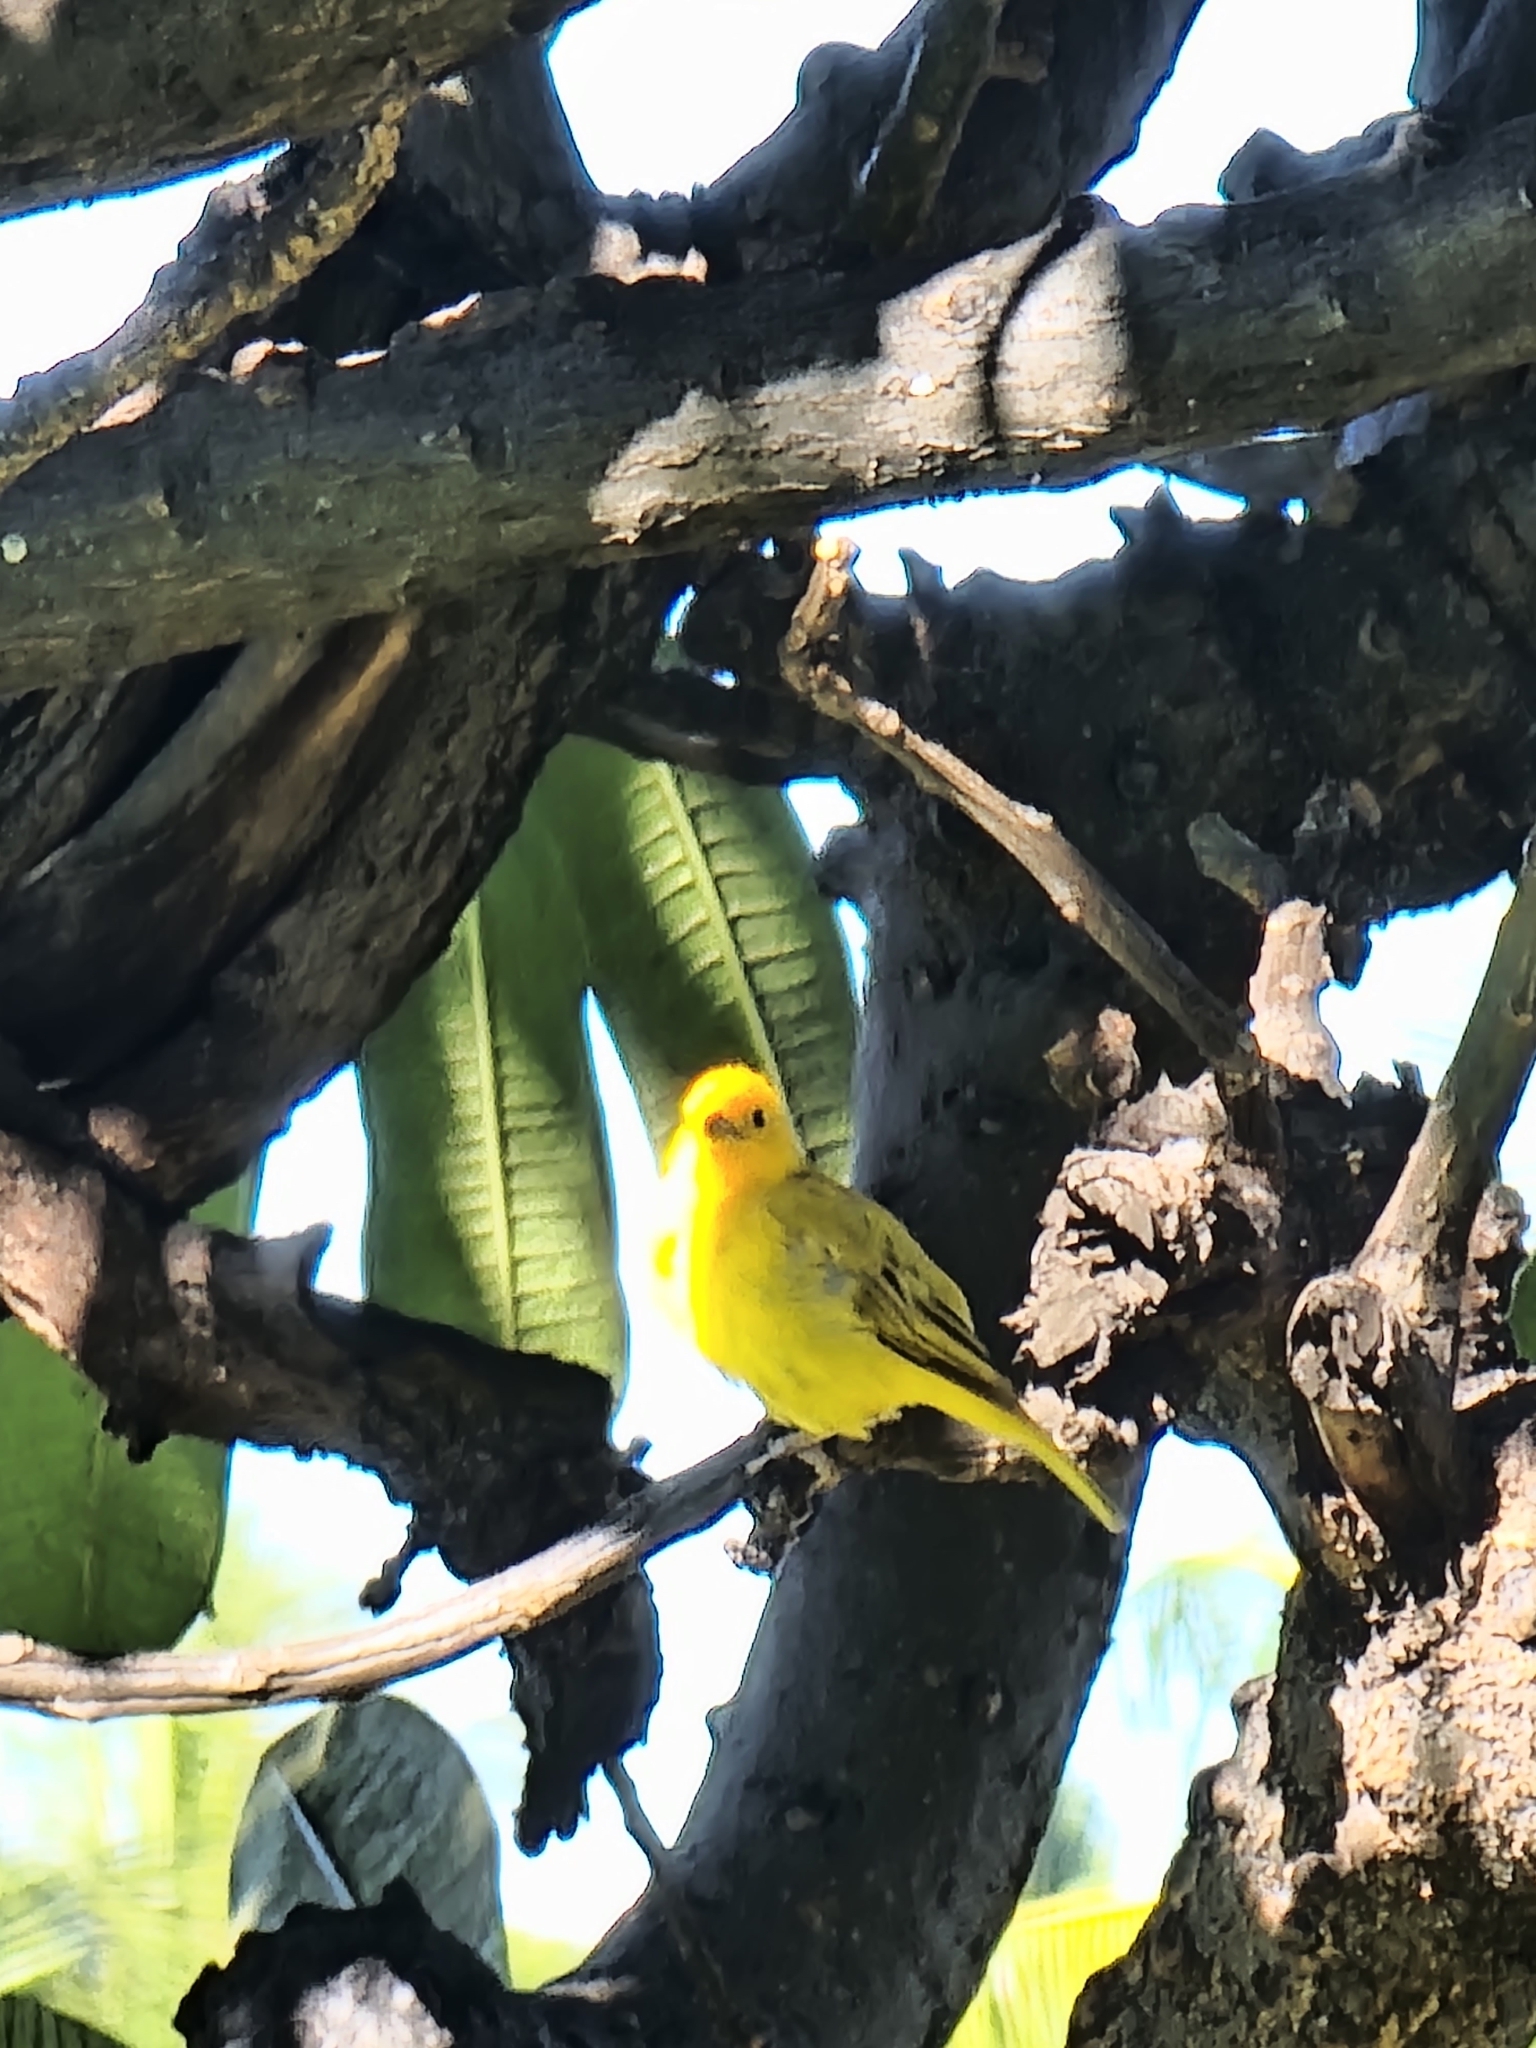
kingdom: Animalia
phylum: Chordata
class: Aves
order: Passeriformes
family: Thraupidae
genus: Sicalis
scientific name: Sicalis flaveola
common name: Saffron finch
